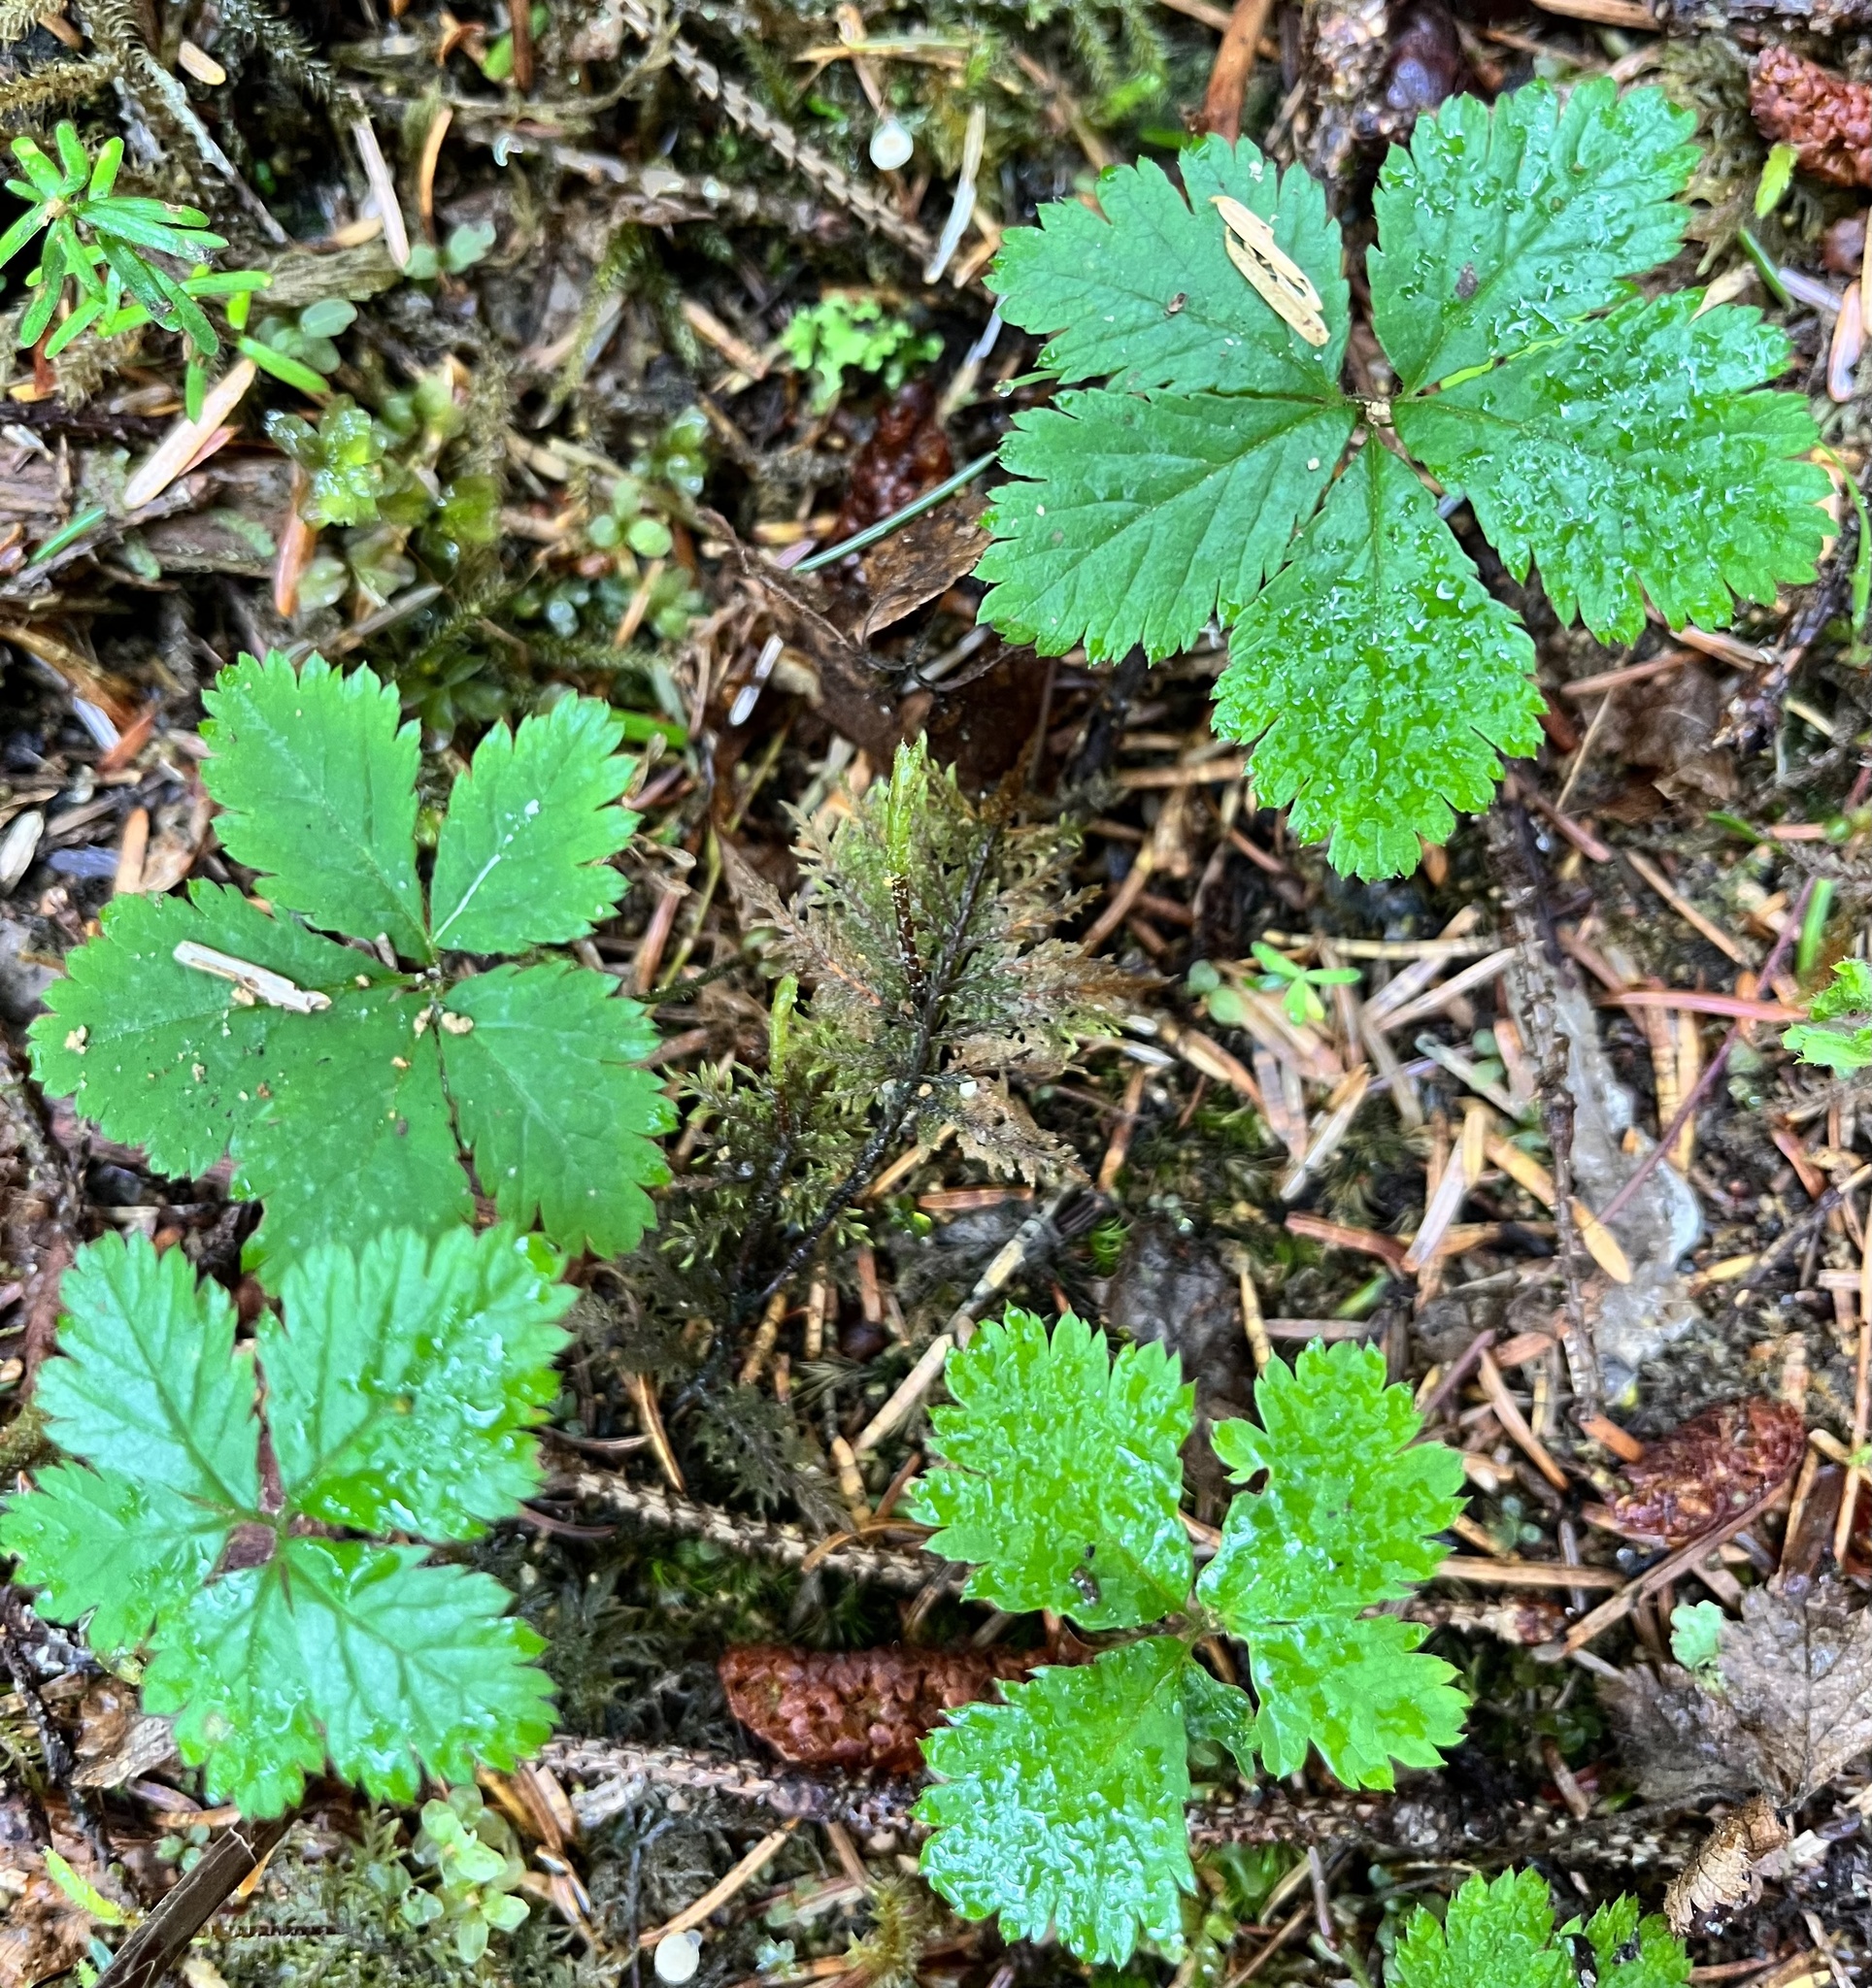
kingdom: Plantae
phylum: Tracheophyta
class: Magnoliopsida
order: Rosales
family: Rosaceae
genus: Rubus
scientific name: Rubus pedatus
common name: Creeping raspberry
